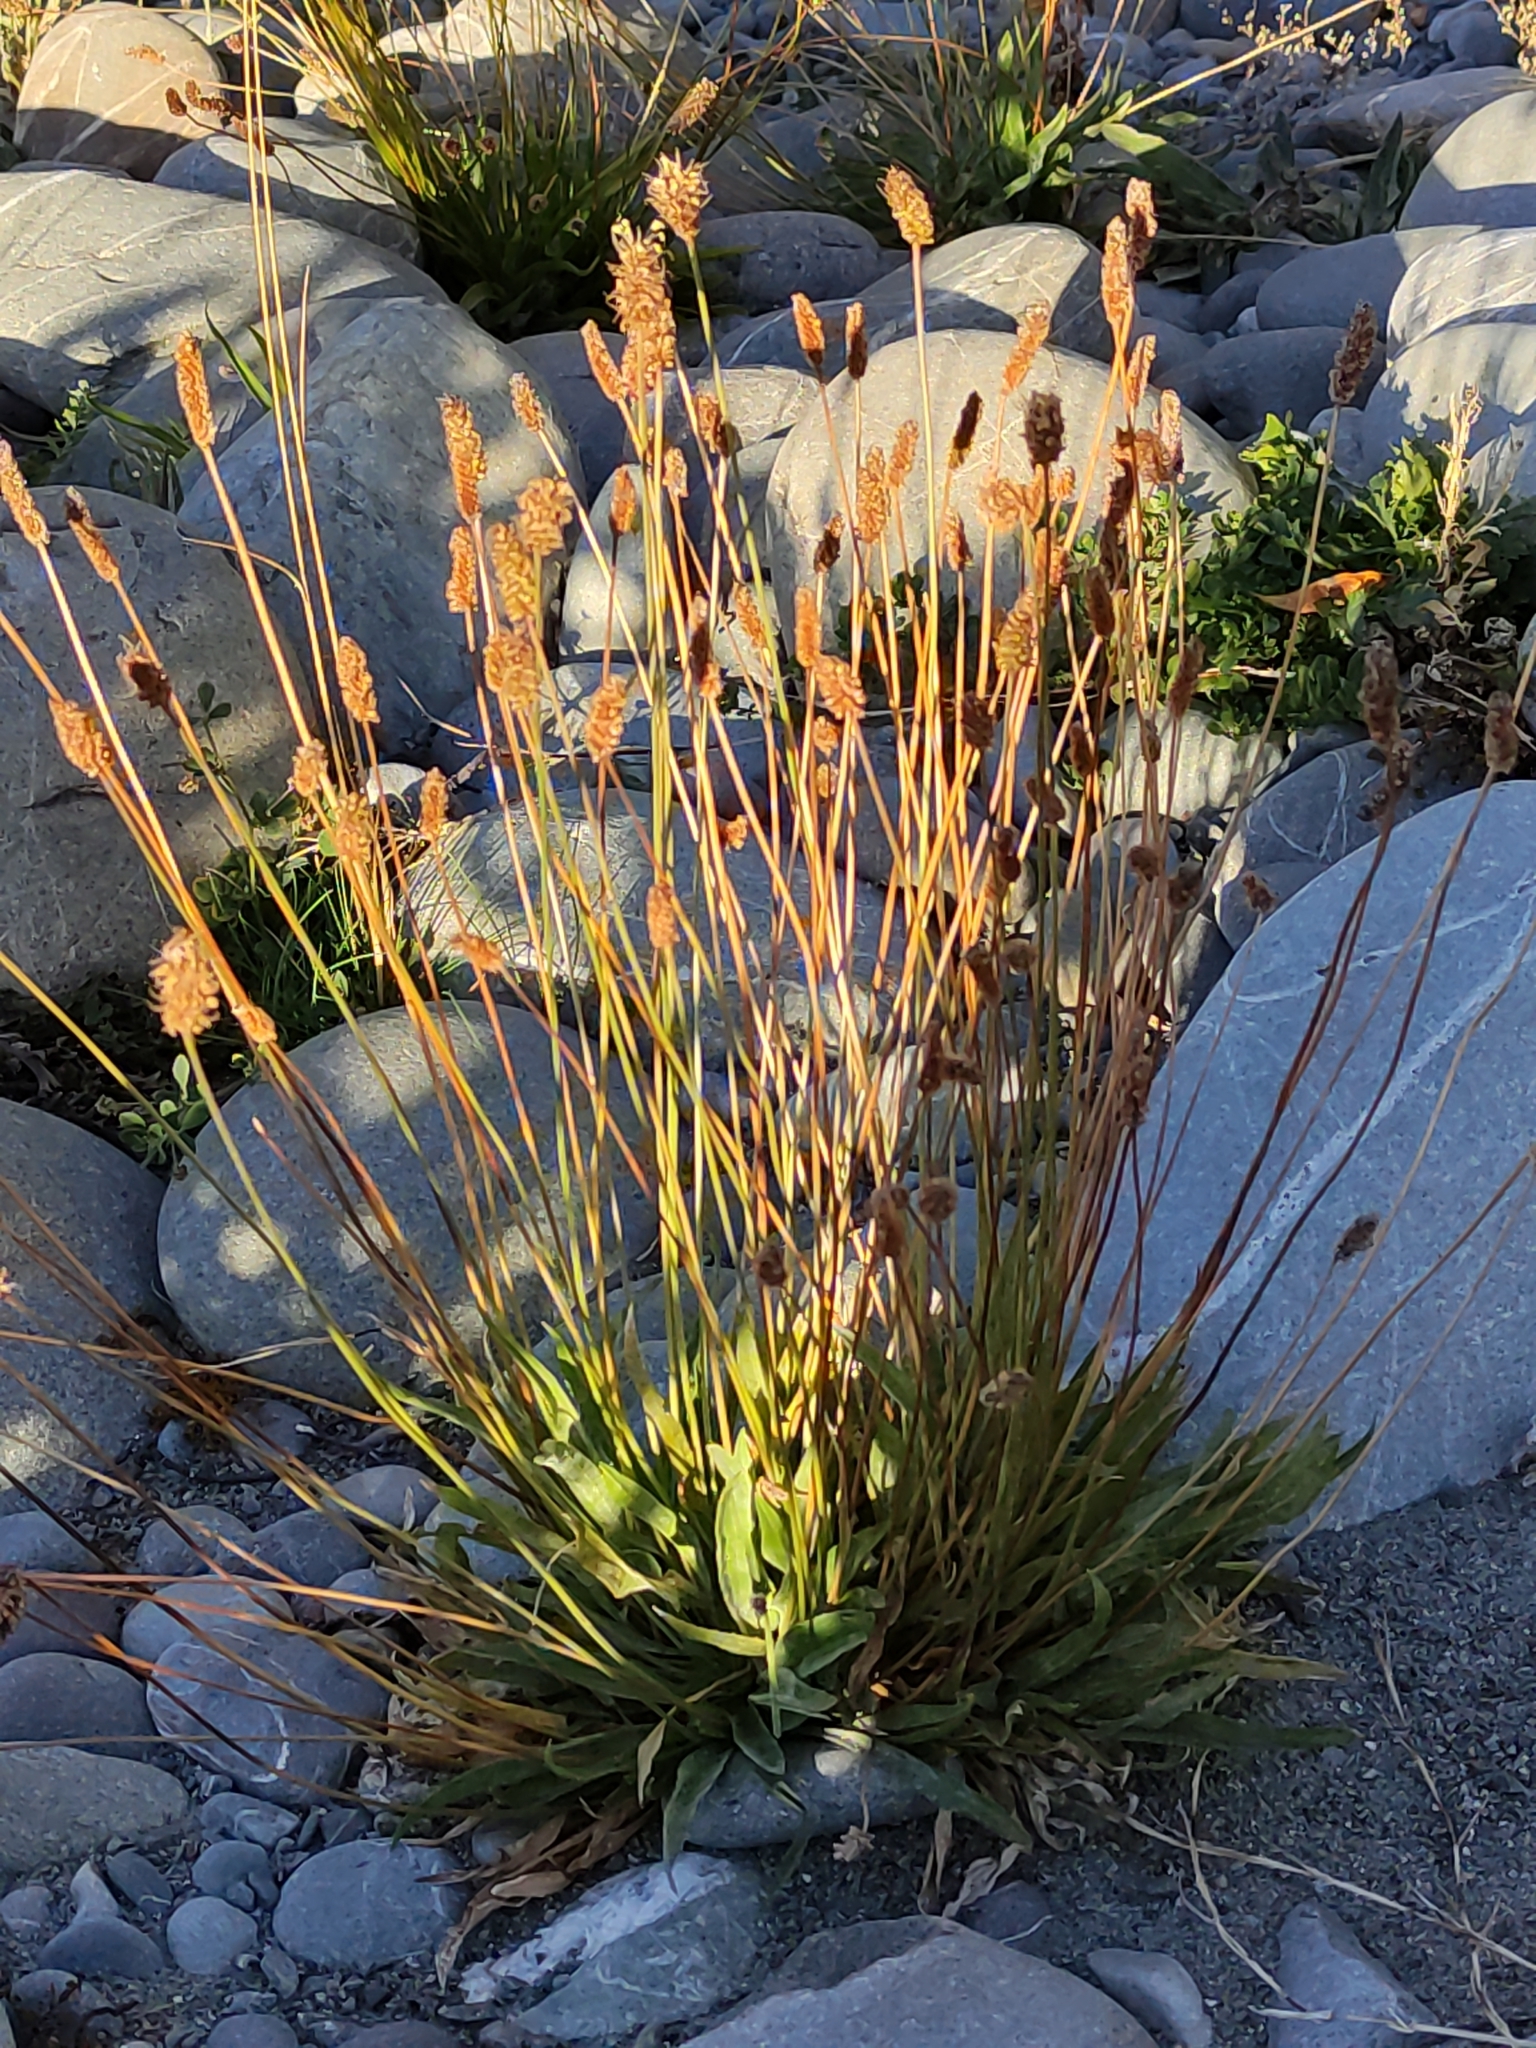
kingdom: Plantae
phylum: Tracheophyta
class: Magnoliopsida
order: Lamiales
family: Plantaginaceae
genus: Plantago
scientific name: Plantago lanceolata
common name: Ribwort plantain
